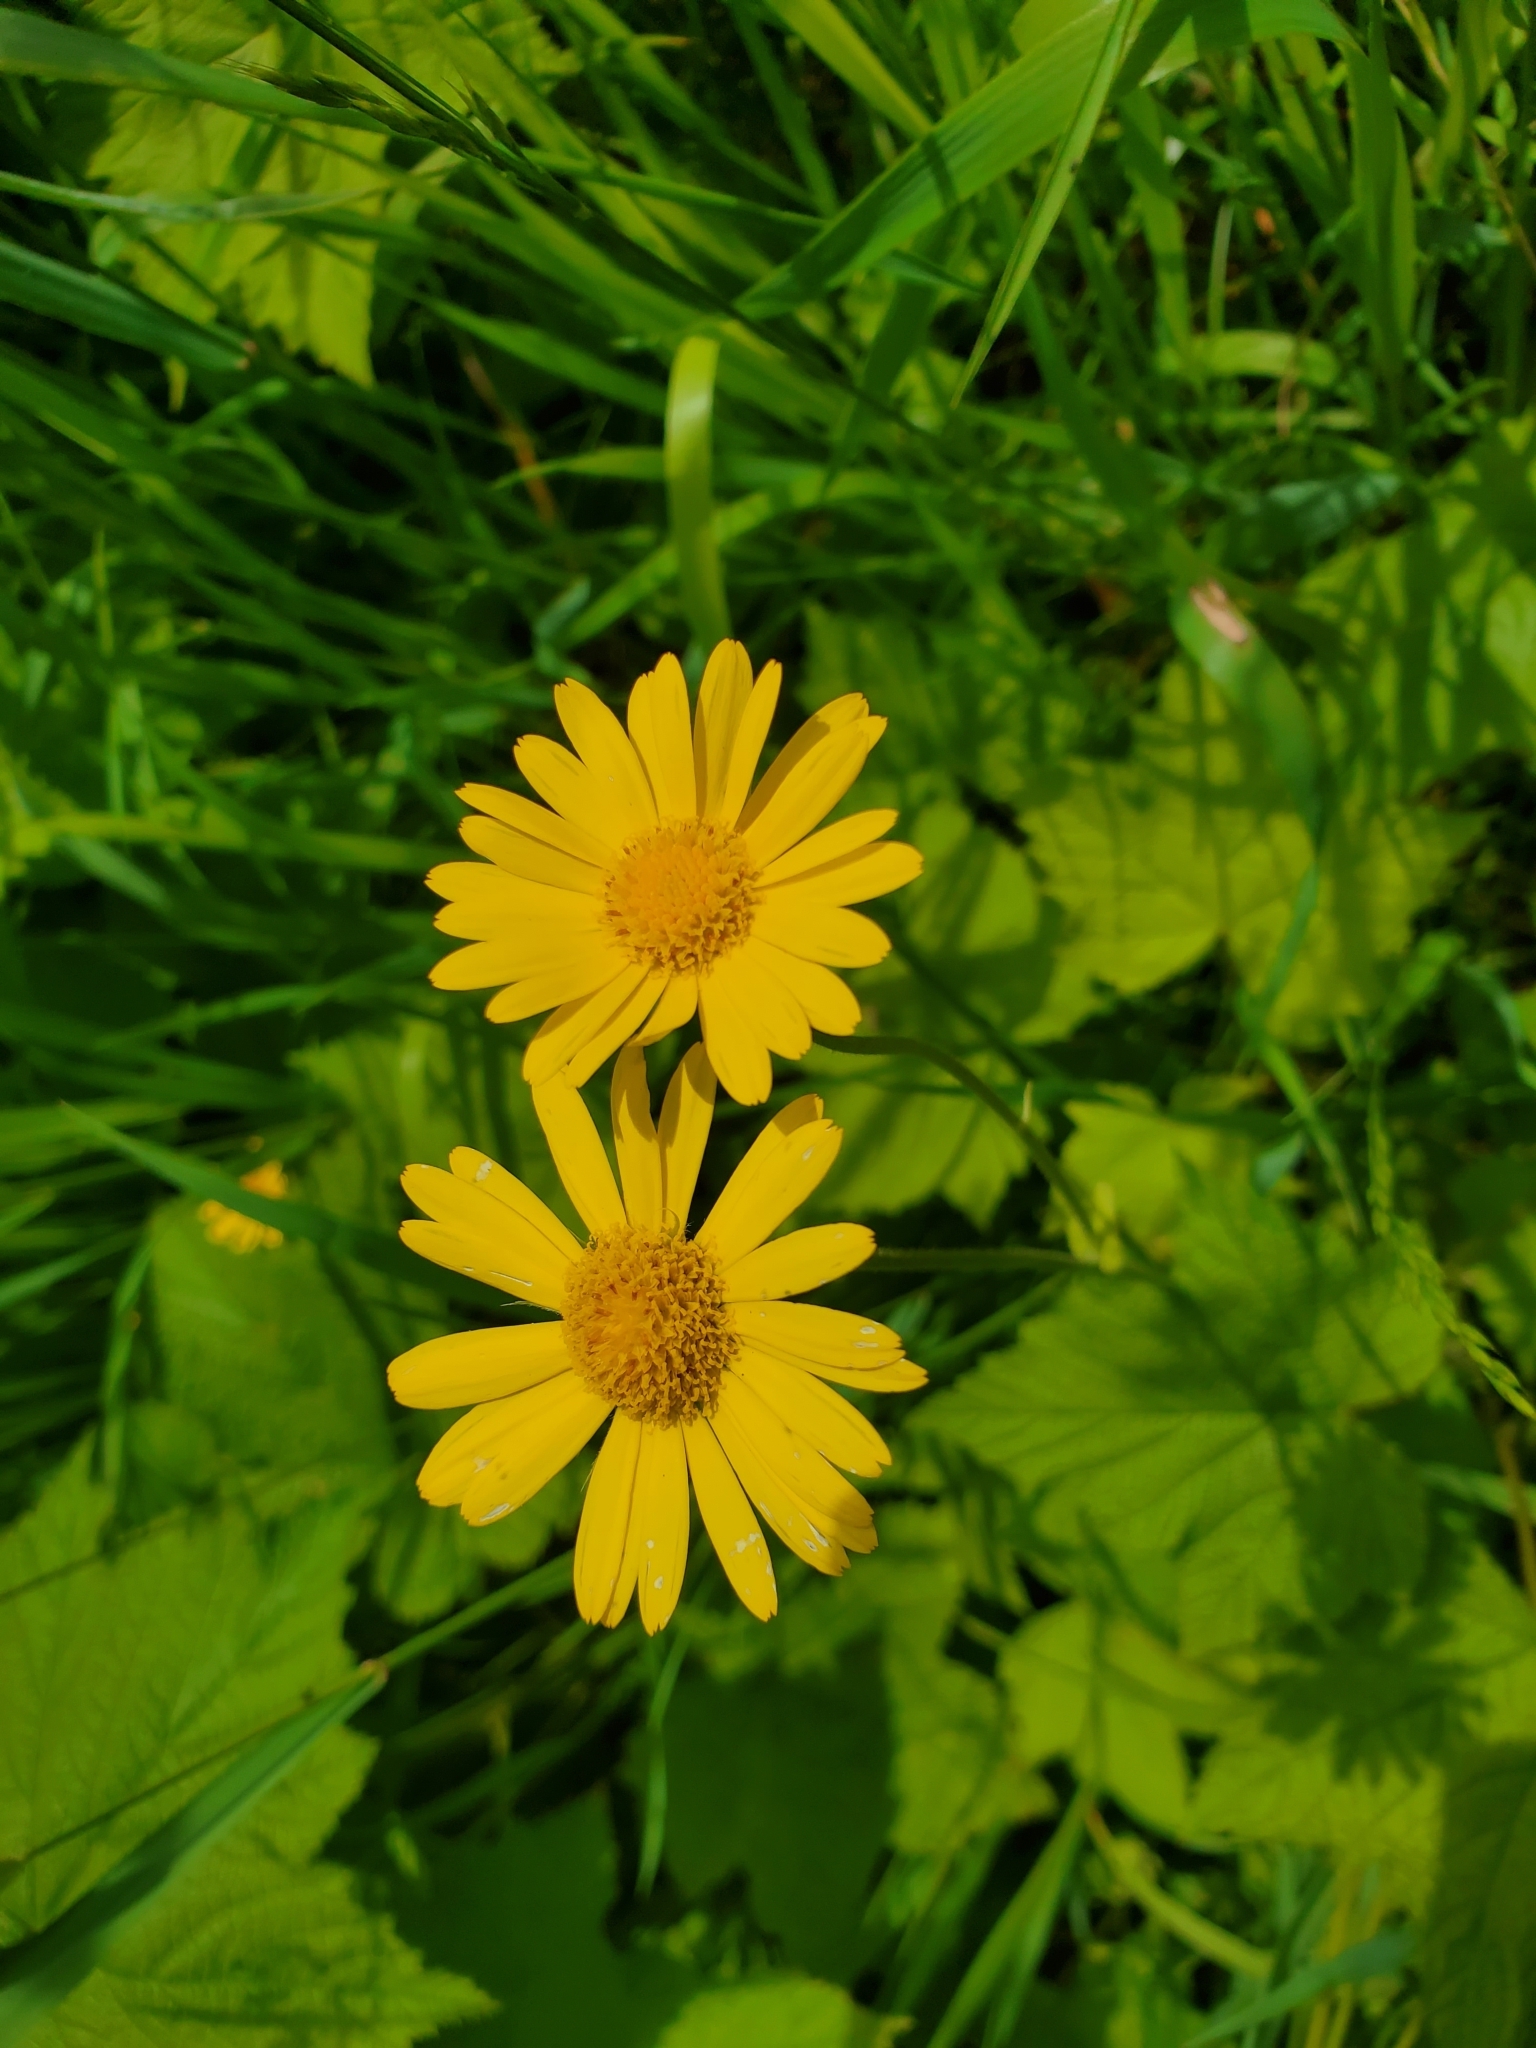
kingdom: Plantae
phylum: Tracheophyta
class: Magnoliopsida
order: Asterales
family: Asteraceae
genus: Doronicum
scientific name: Doronicum pardalianches
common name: Leopard's-bane
